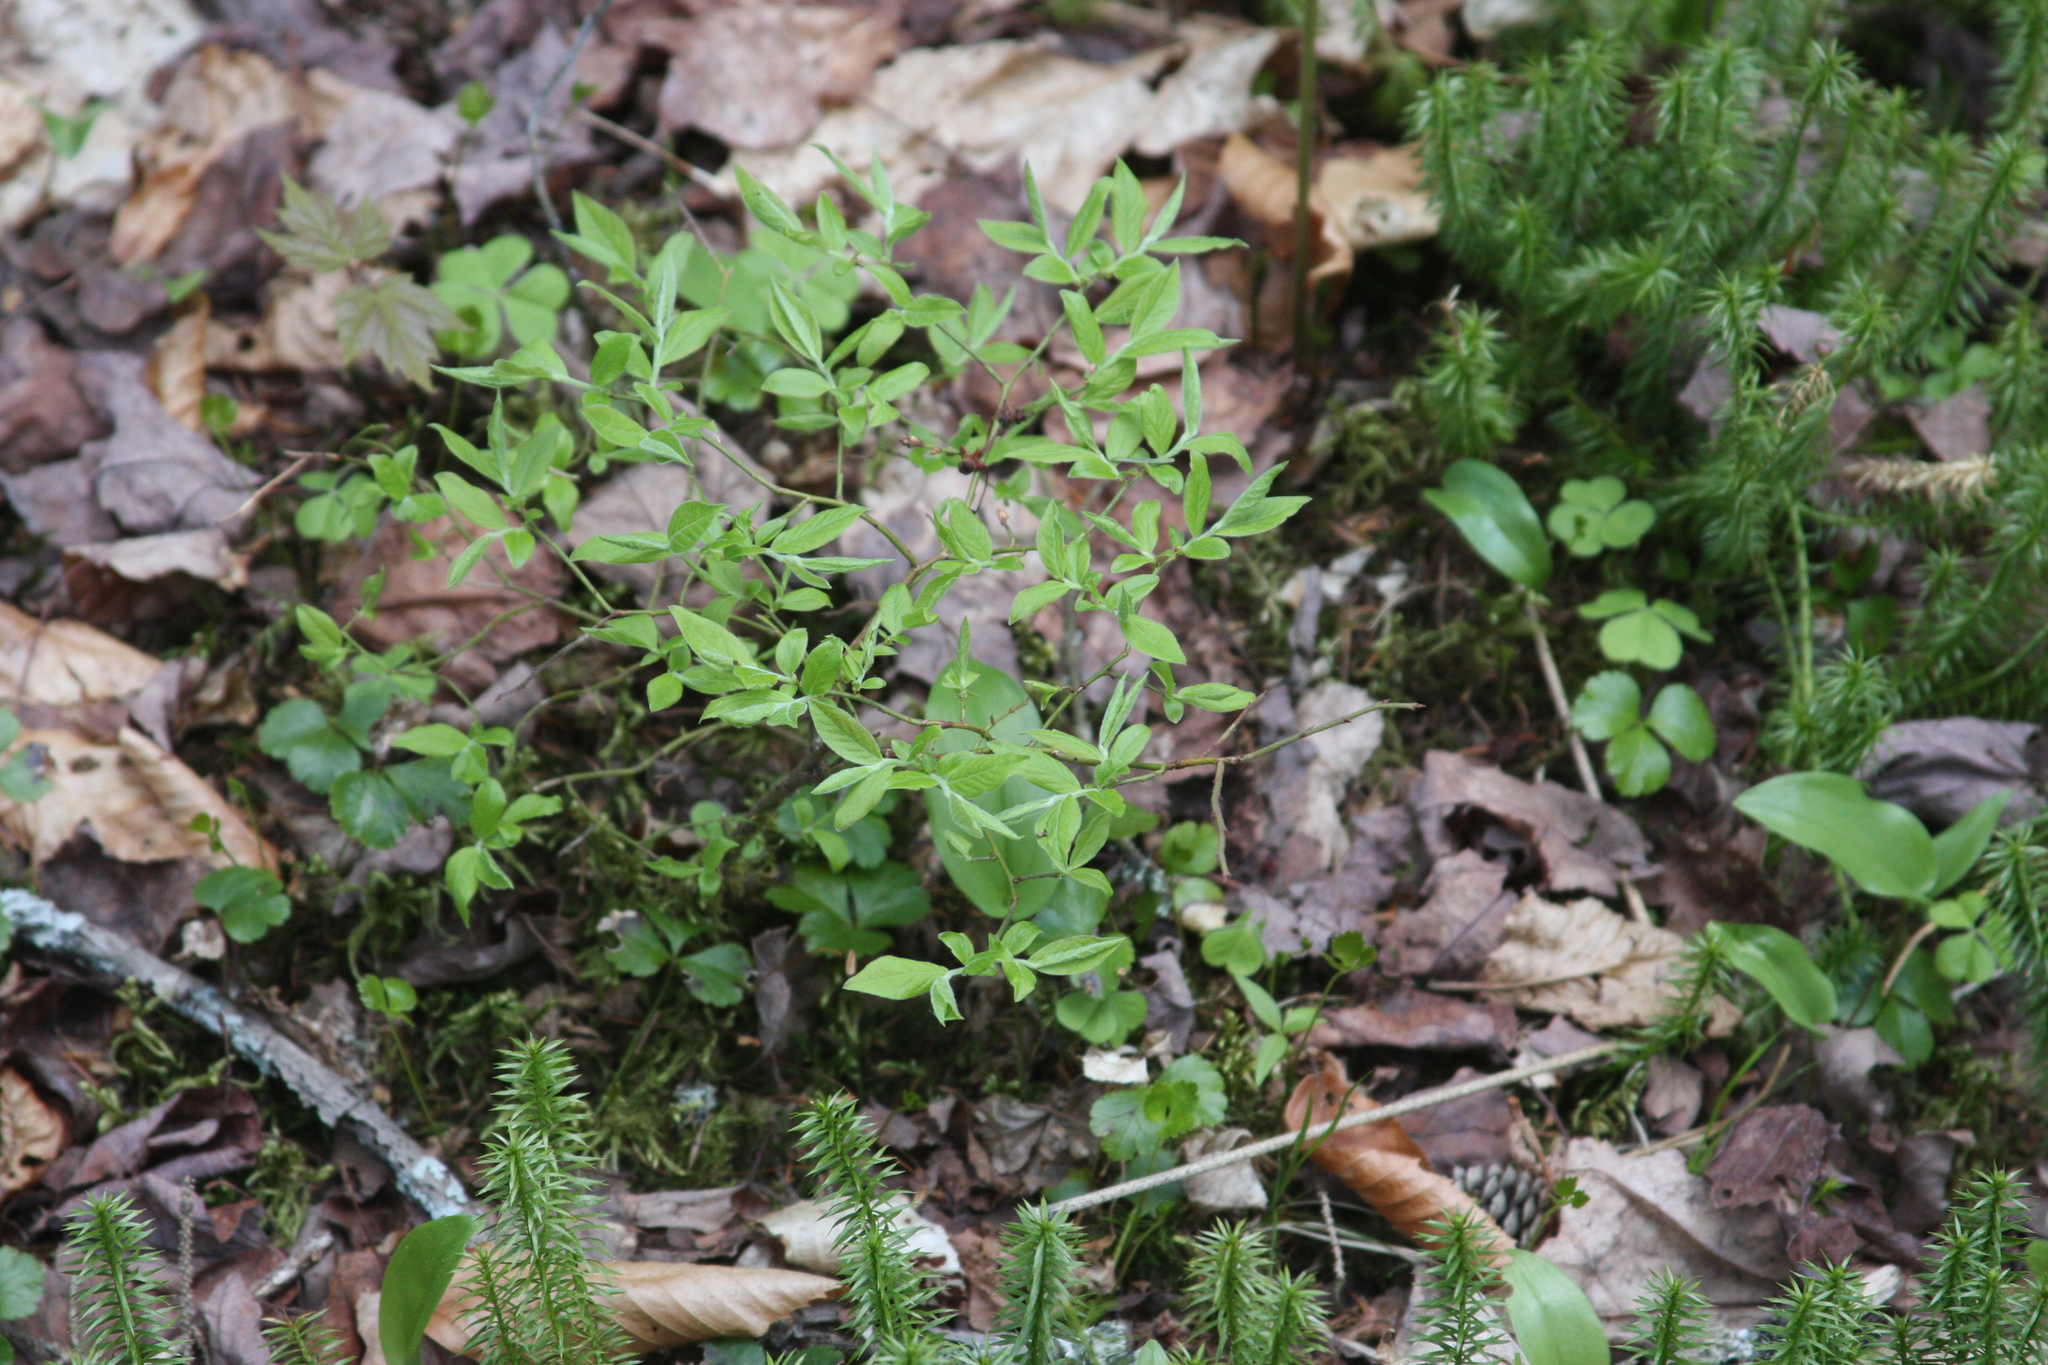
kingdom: Plantae
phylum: Tracheophyta
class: Liliopsida
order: Asparagales
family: Asparagaceae
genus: Maianthemum
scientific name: Maianthemum canadense
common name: False lily-of-the-valley
